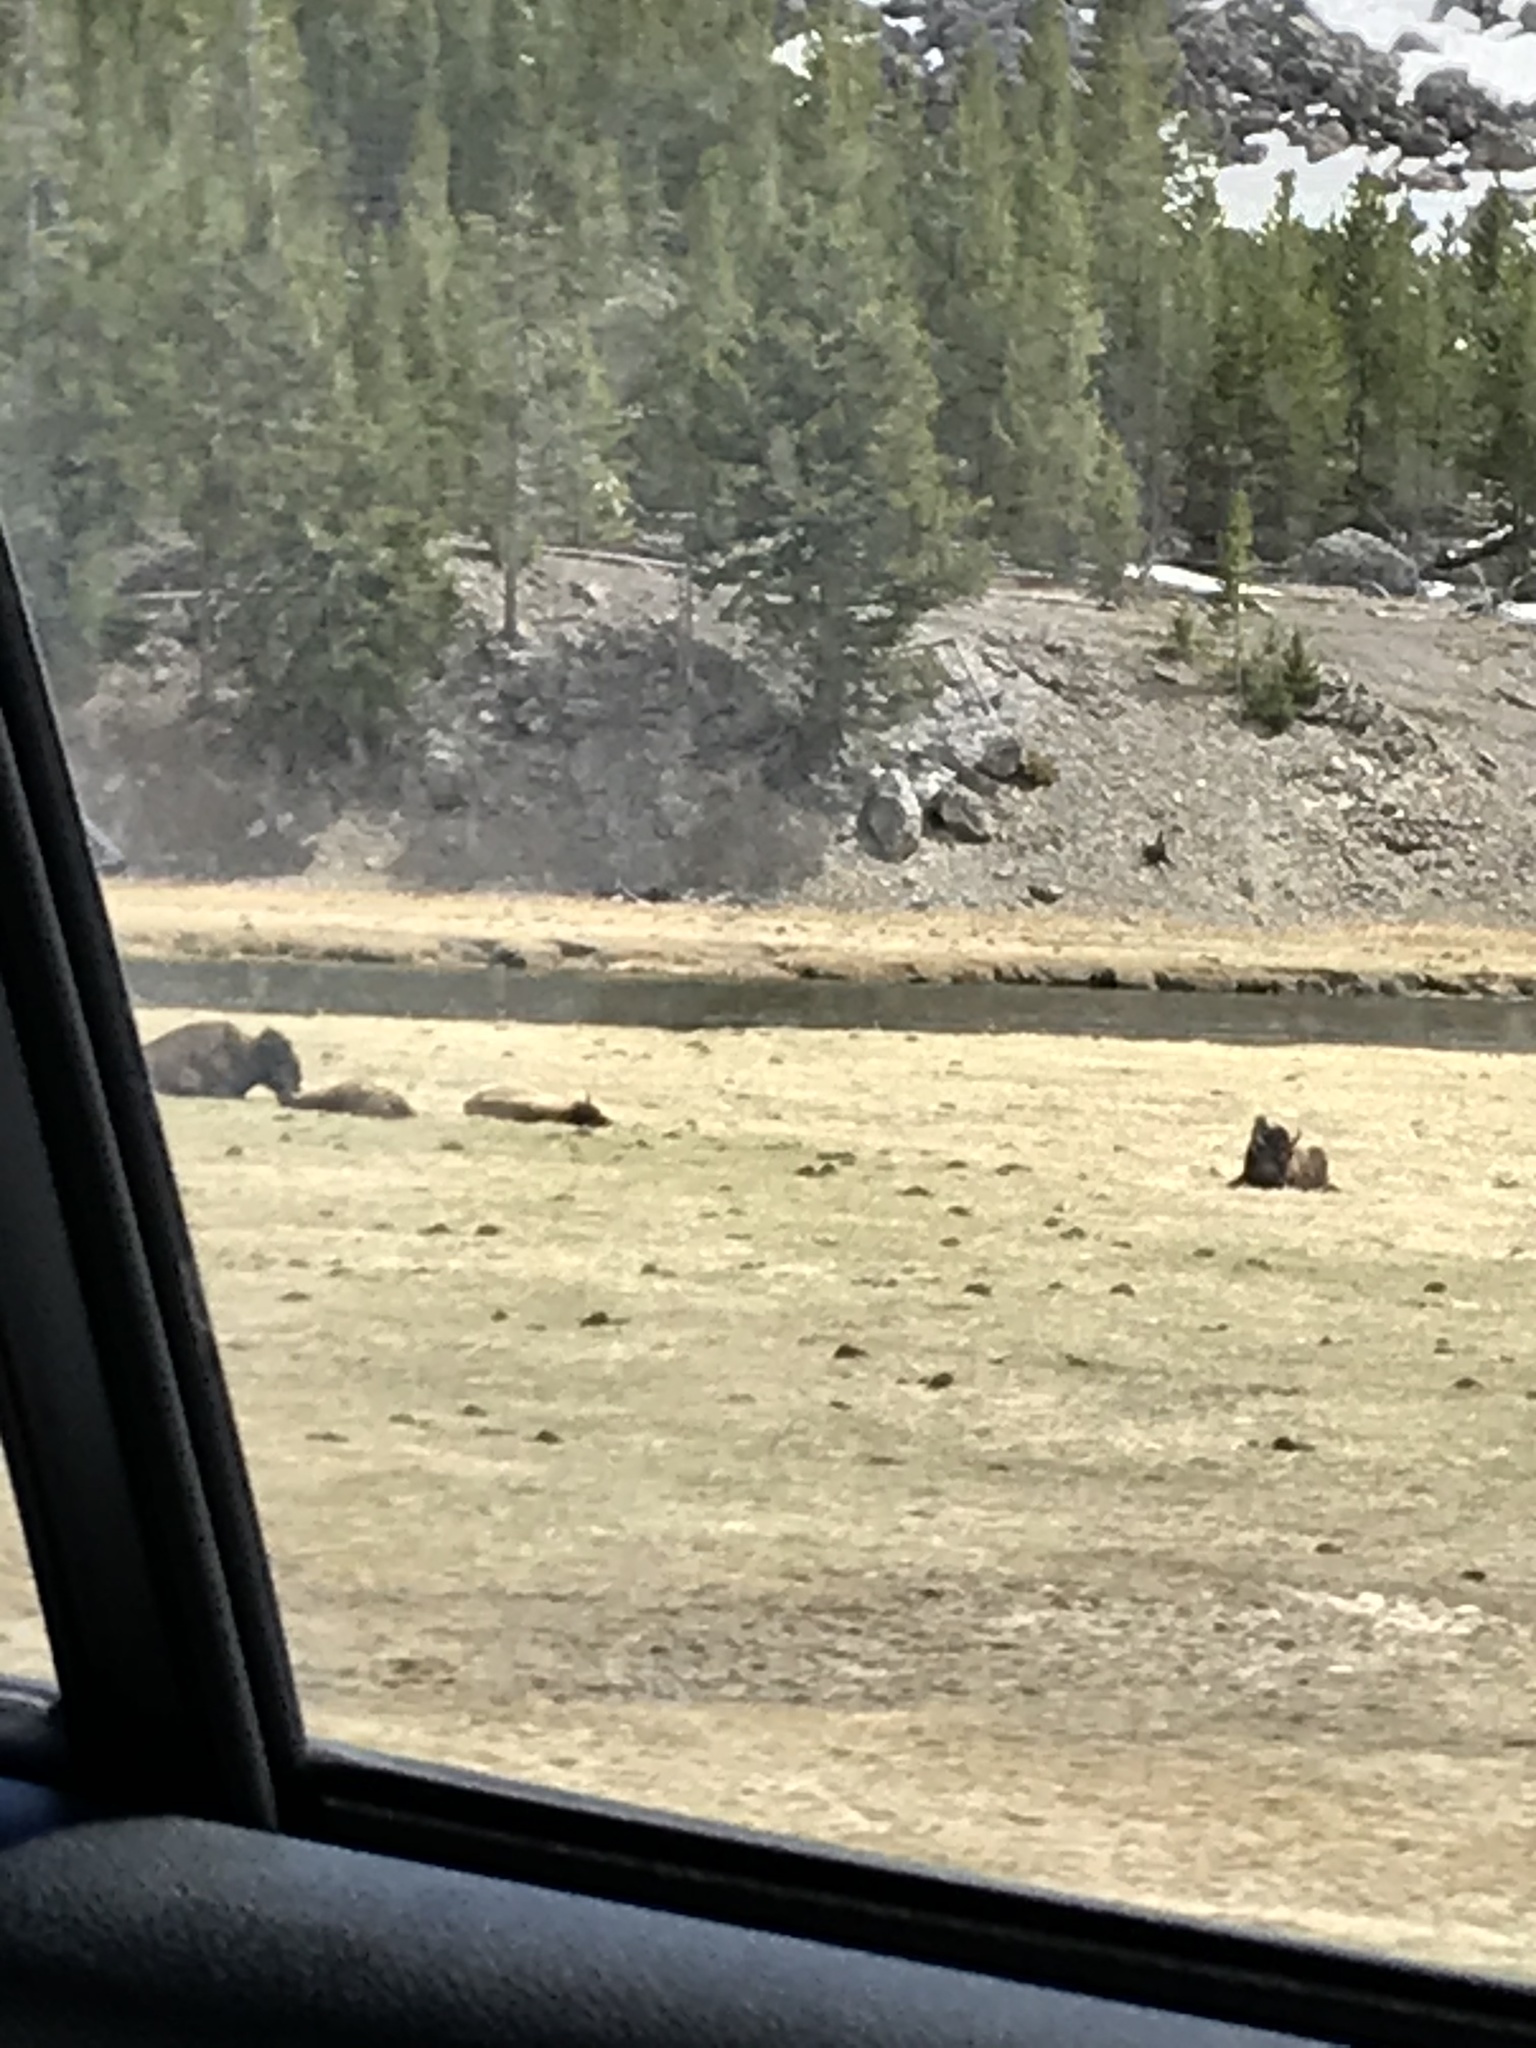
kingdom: Animalia
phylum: Chordata
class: Mammalia
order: Artiodactyla
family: Bovidae
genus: Bison
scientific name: Bison bison
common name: American bison
